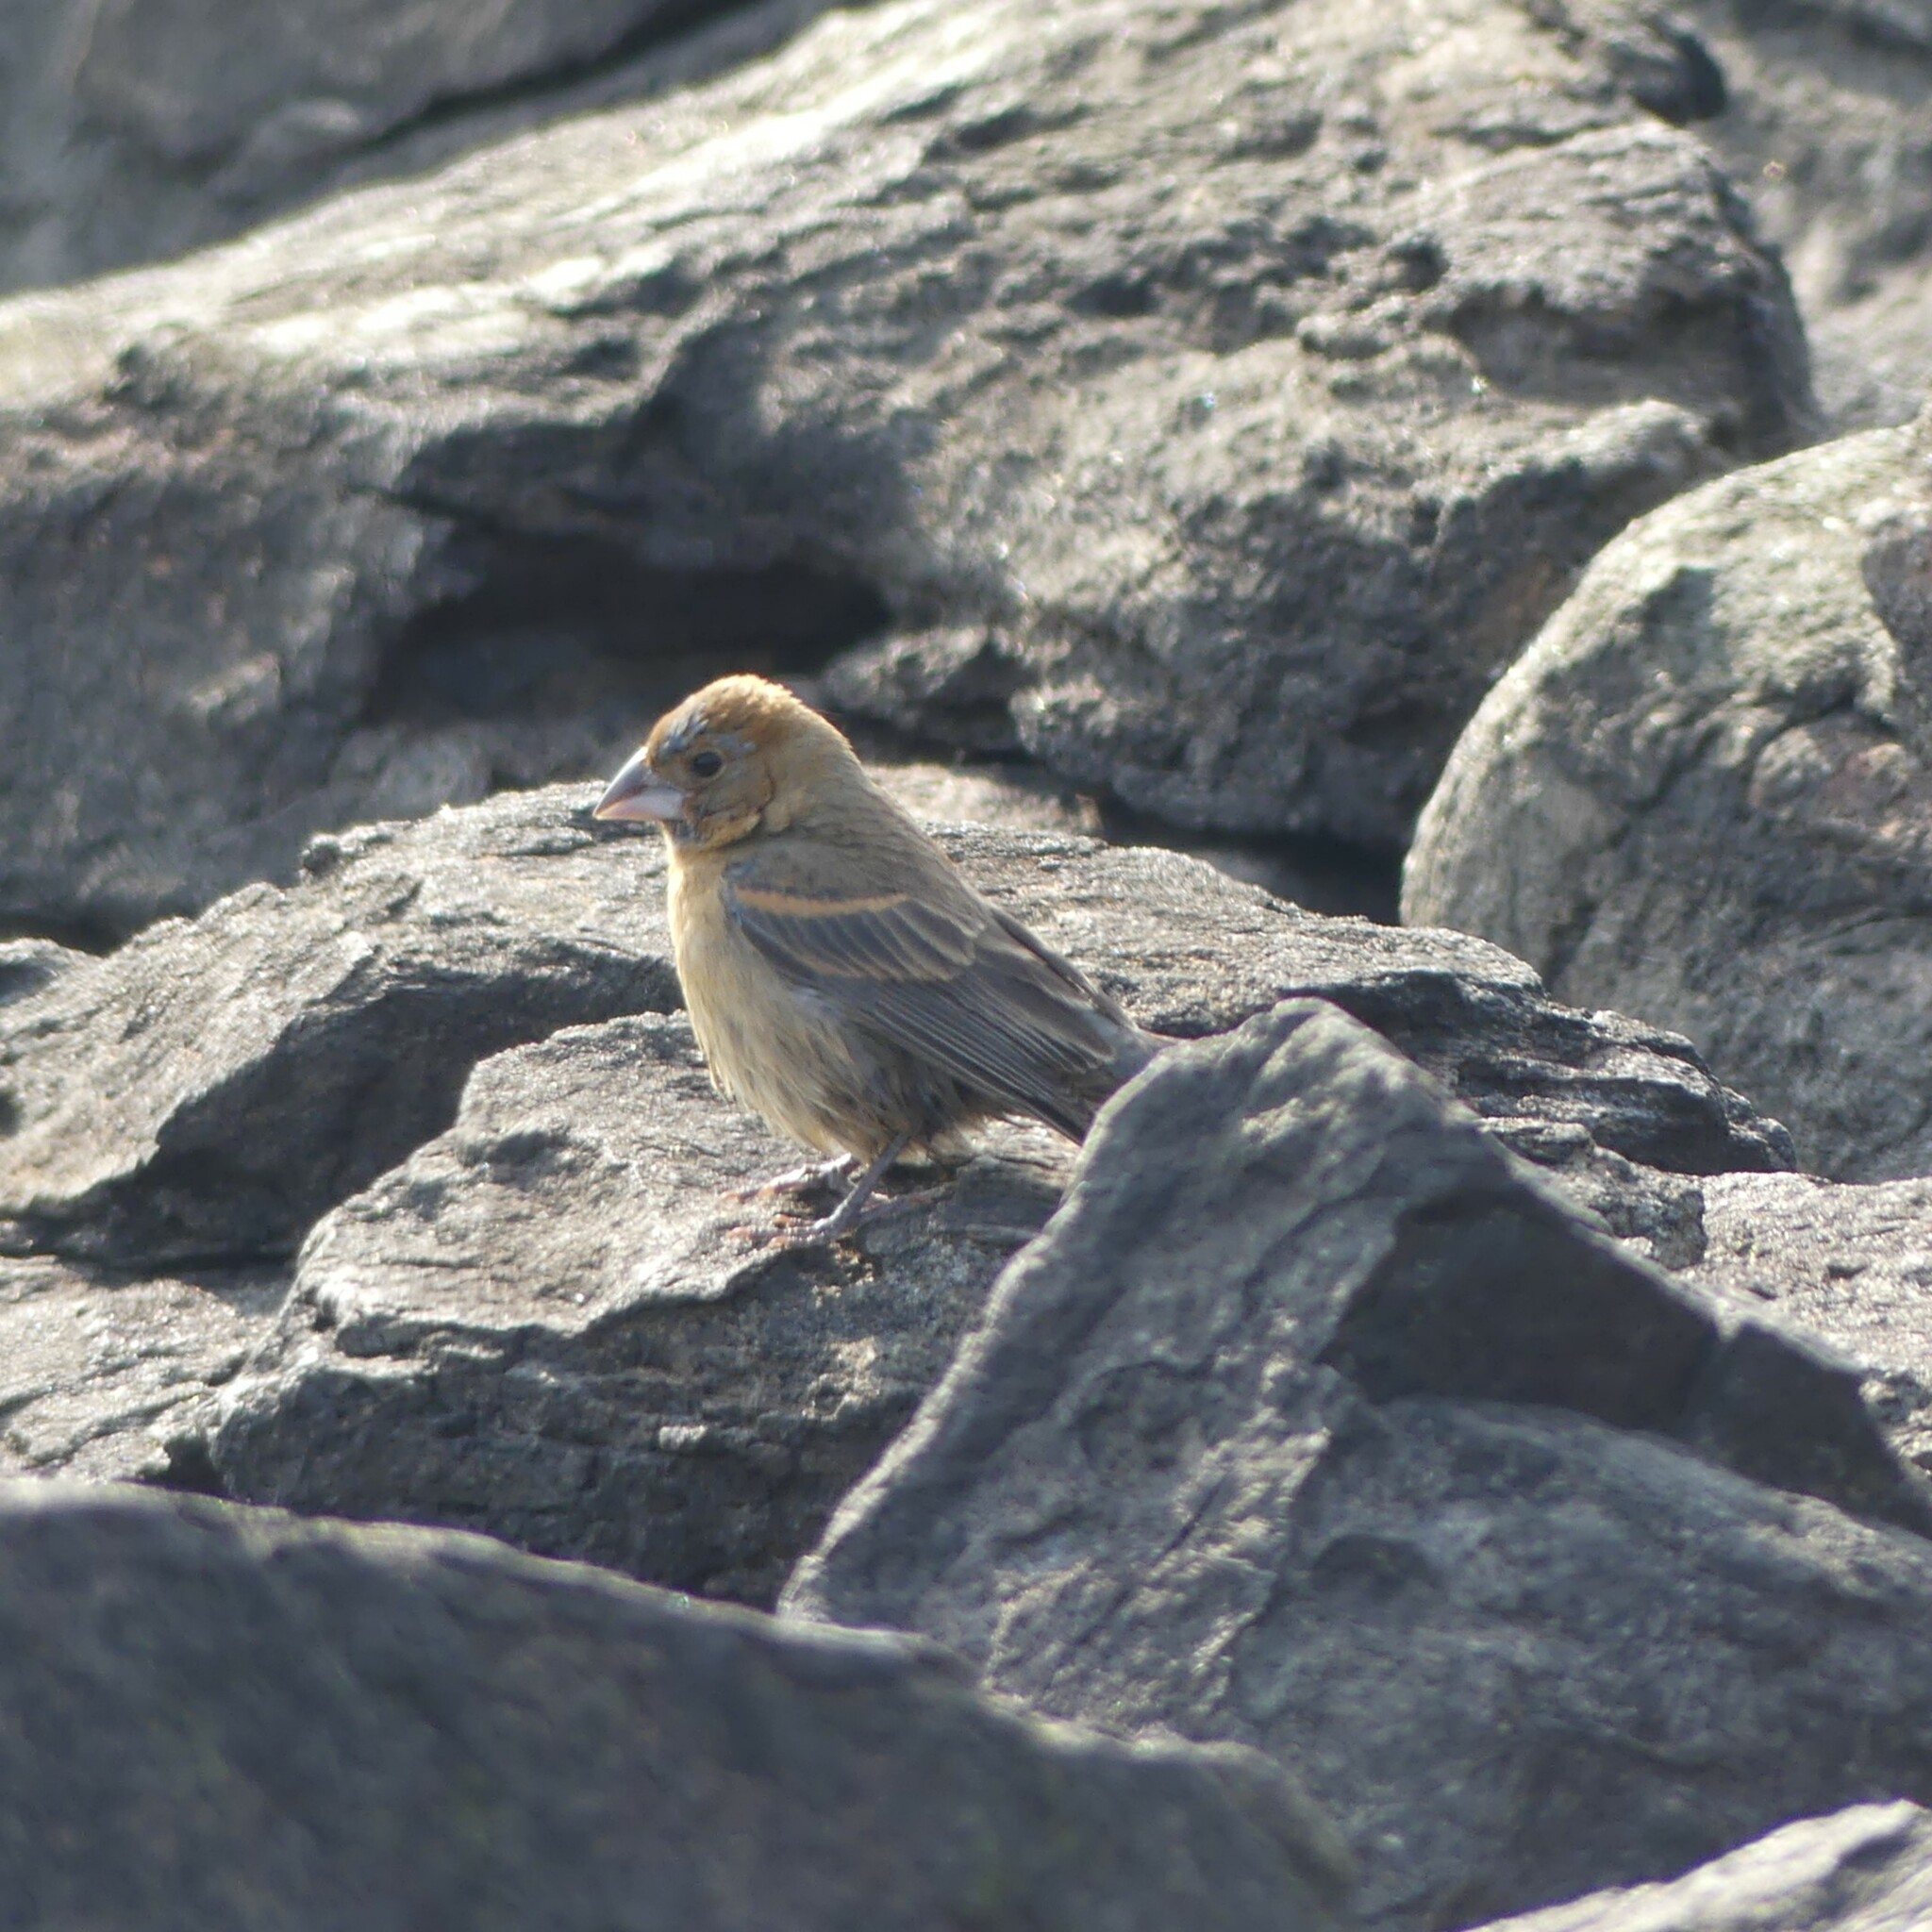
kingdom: Animalia
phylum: Chordata
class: Aves
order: Passeriformes
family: Cardinalidae
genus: Passerina
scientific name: Passerina caerulea
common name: Blue grosbeak
